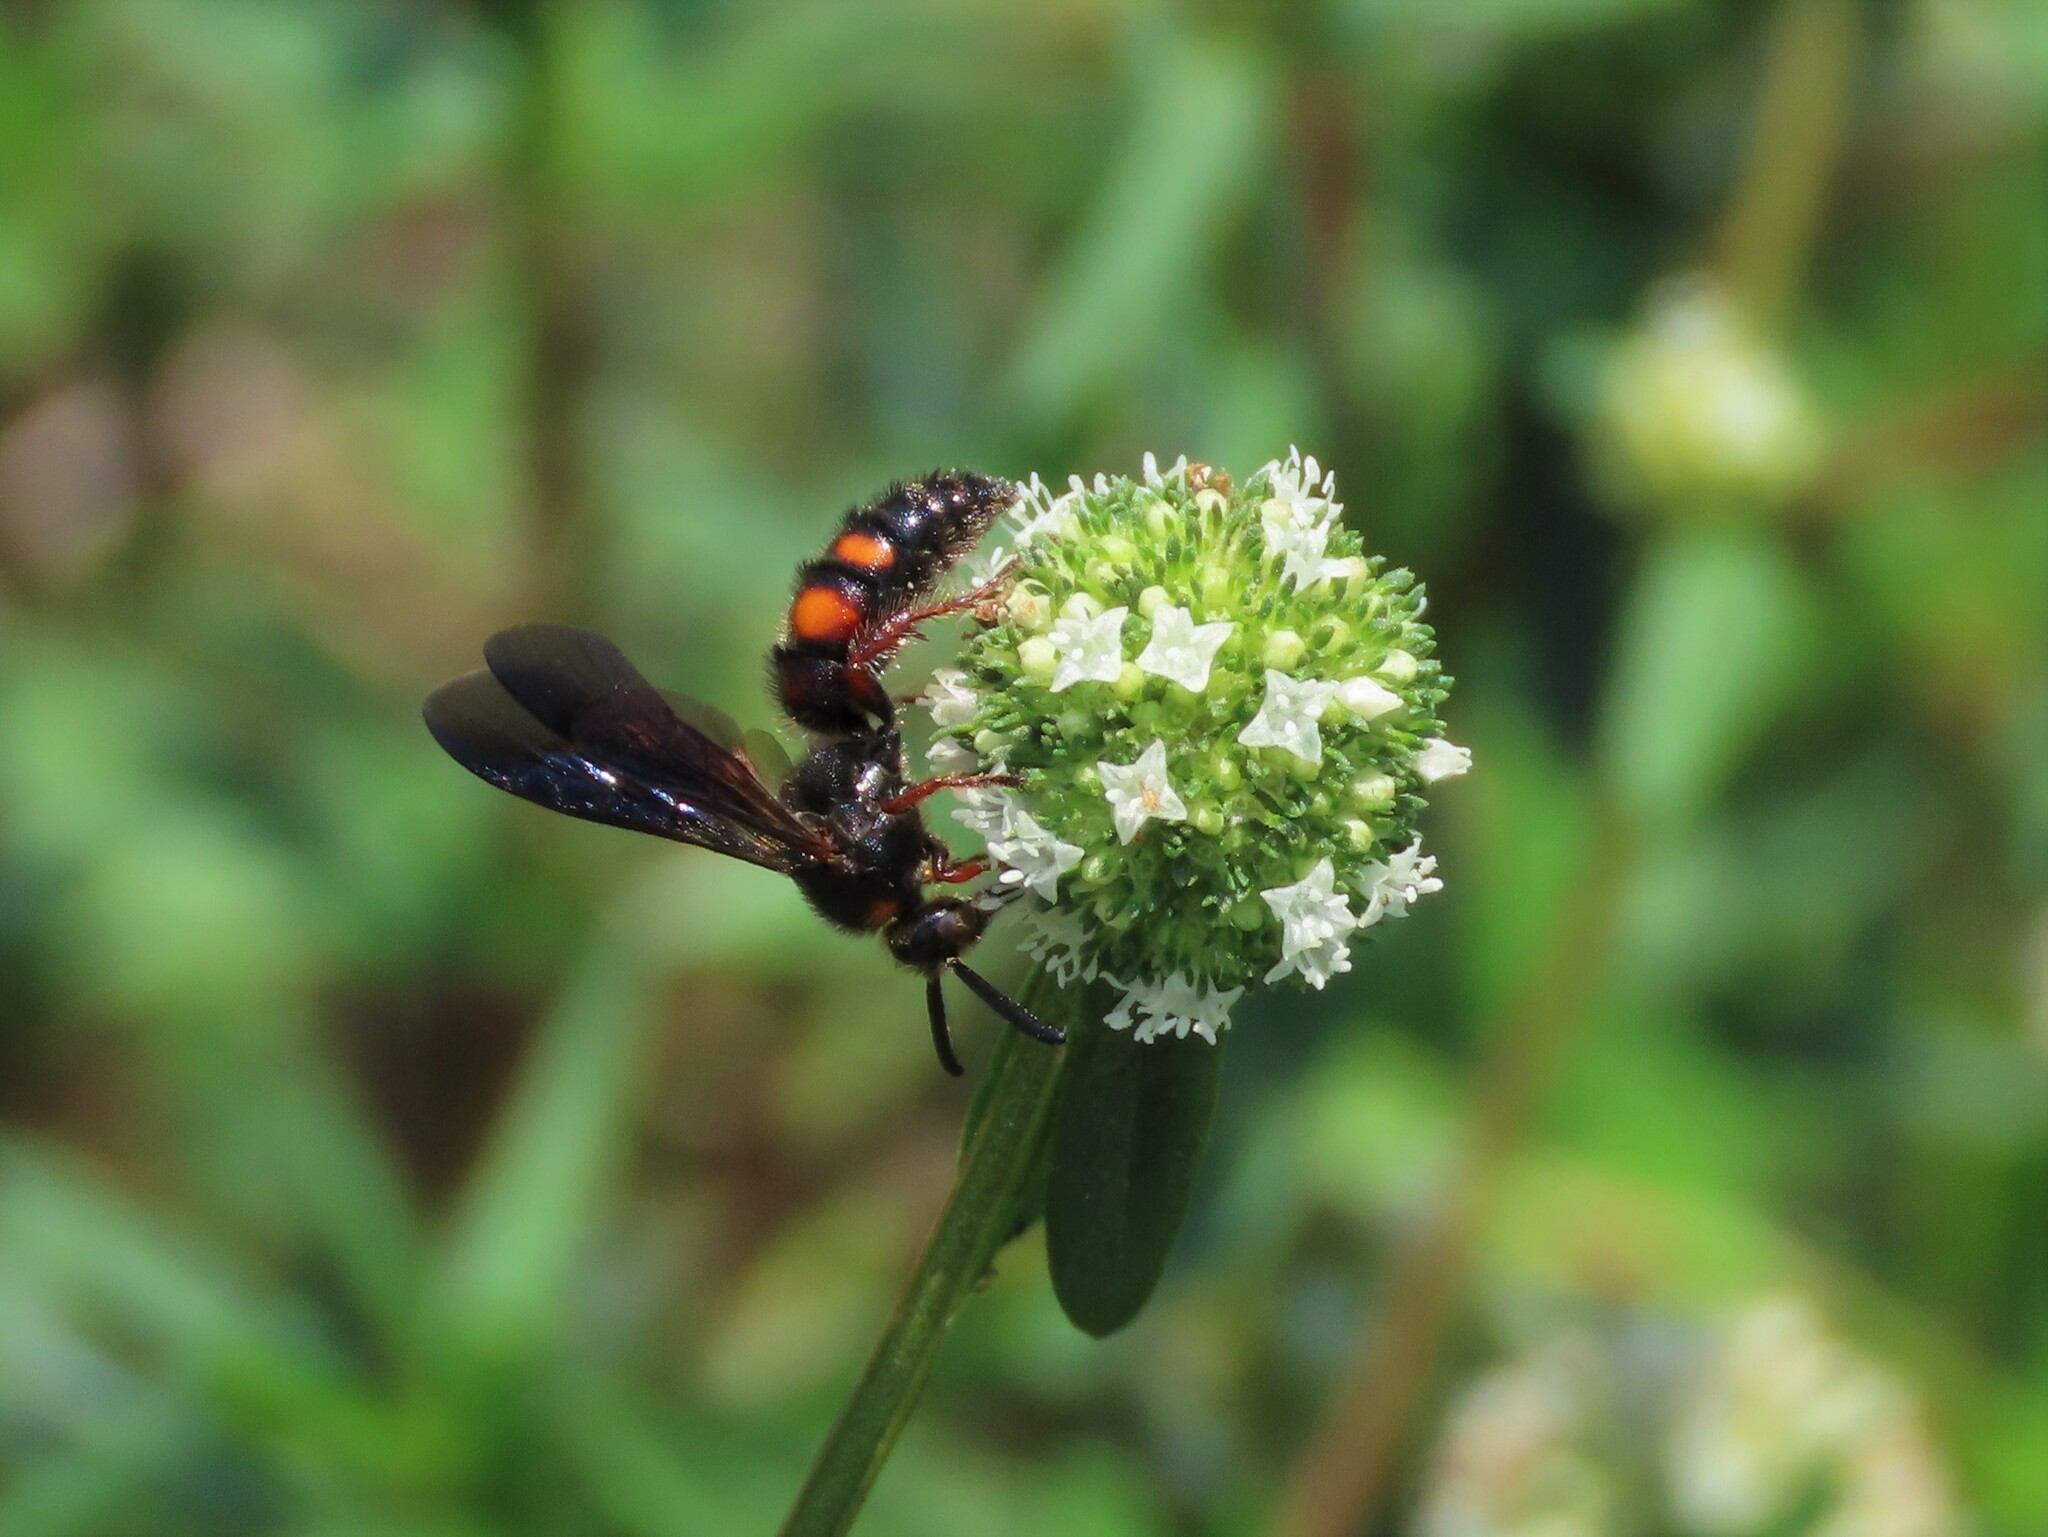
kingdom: Animalia
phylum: Arthropoda
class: Insecta
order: Hymenoptera
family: Scoliidae
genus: Scolia
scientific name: Scolia nobilitata
